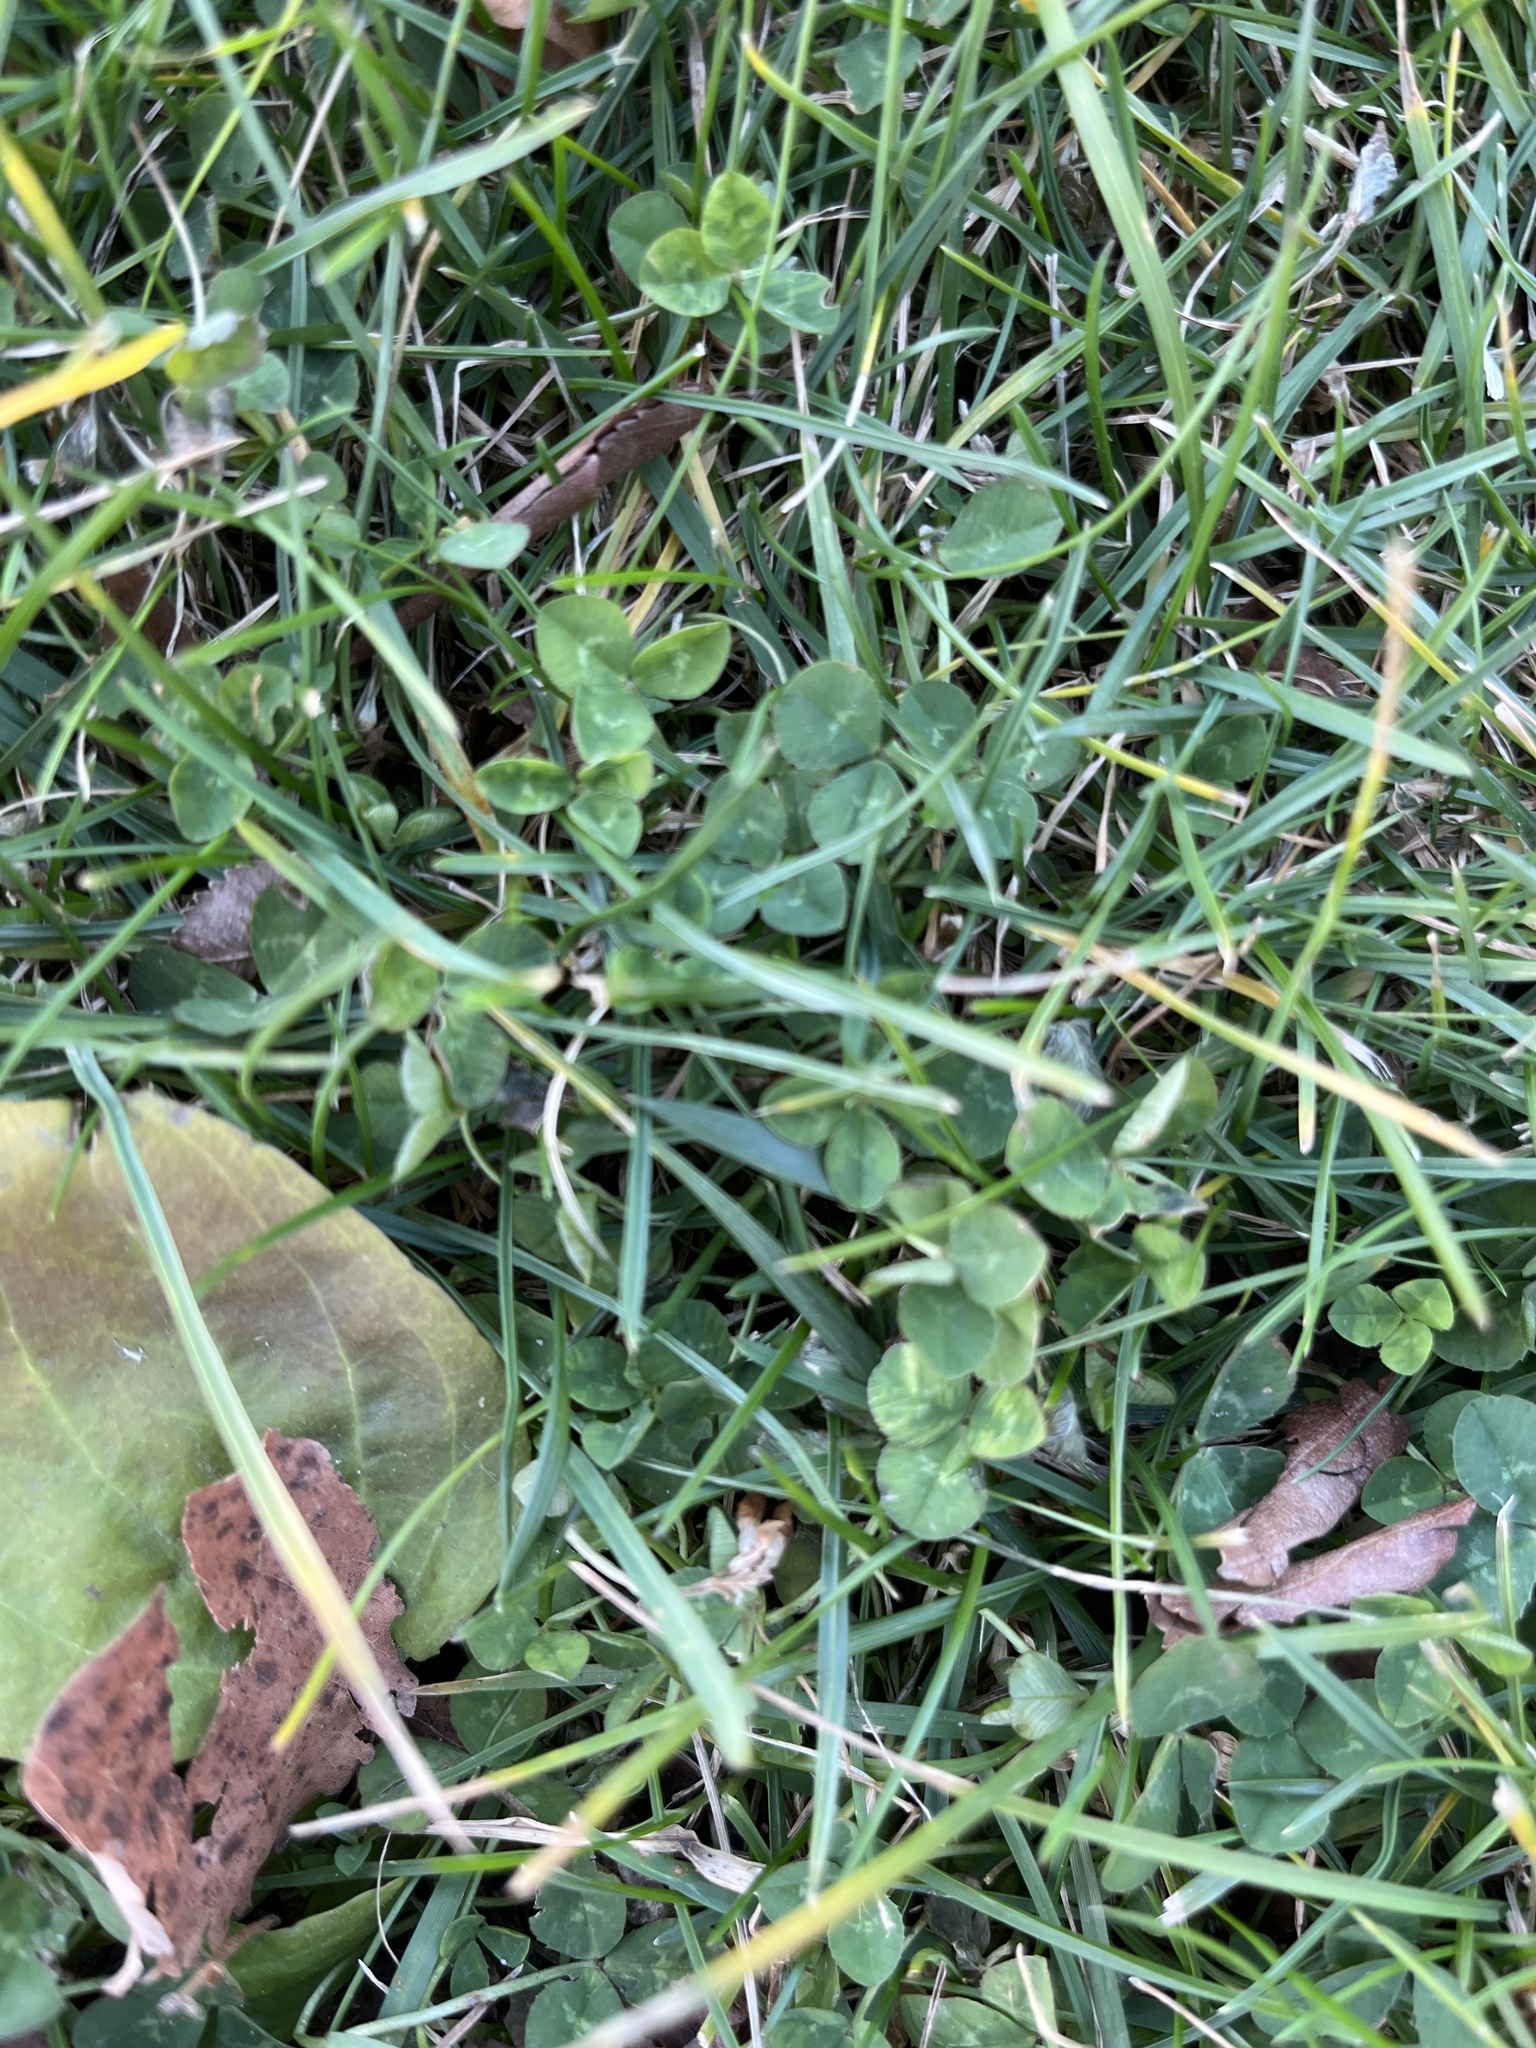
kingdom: Plantae
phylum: Tracheophyta
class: Magnoliopsida
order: Fabales
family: Fabaceae
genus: Trifolium
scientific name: Trifolium repens
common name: White clover
